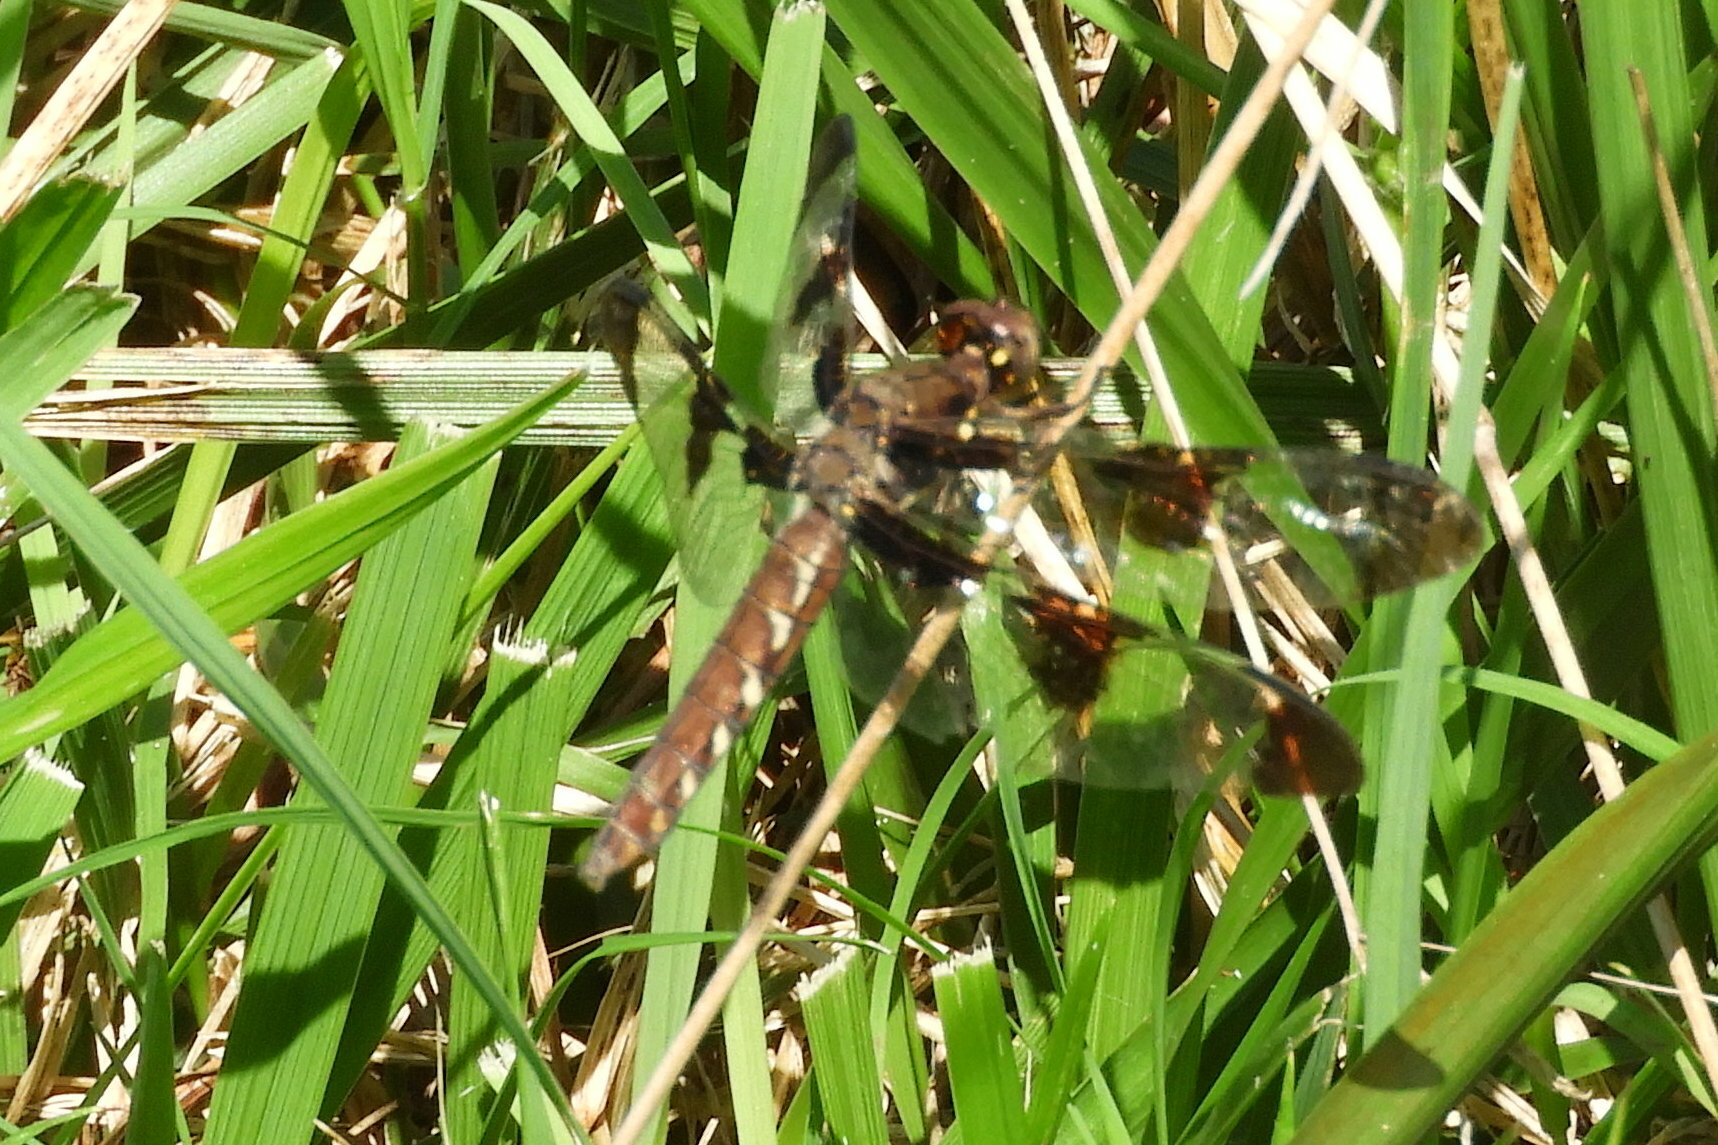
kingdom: Animalia
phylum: Arthropoda
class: Insecta
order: Odonata
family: Libellulidae
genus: Plathemis
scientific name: Plathemis lydia
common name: Common whitetail
